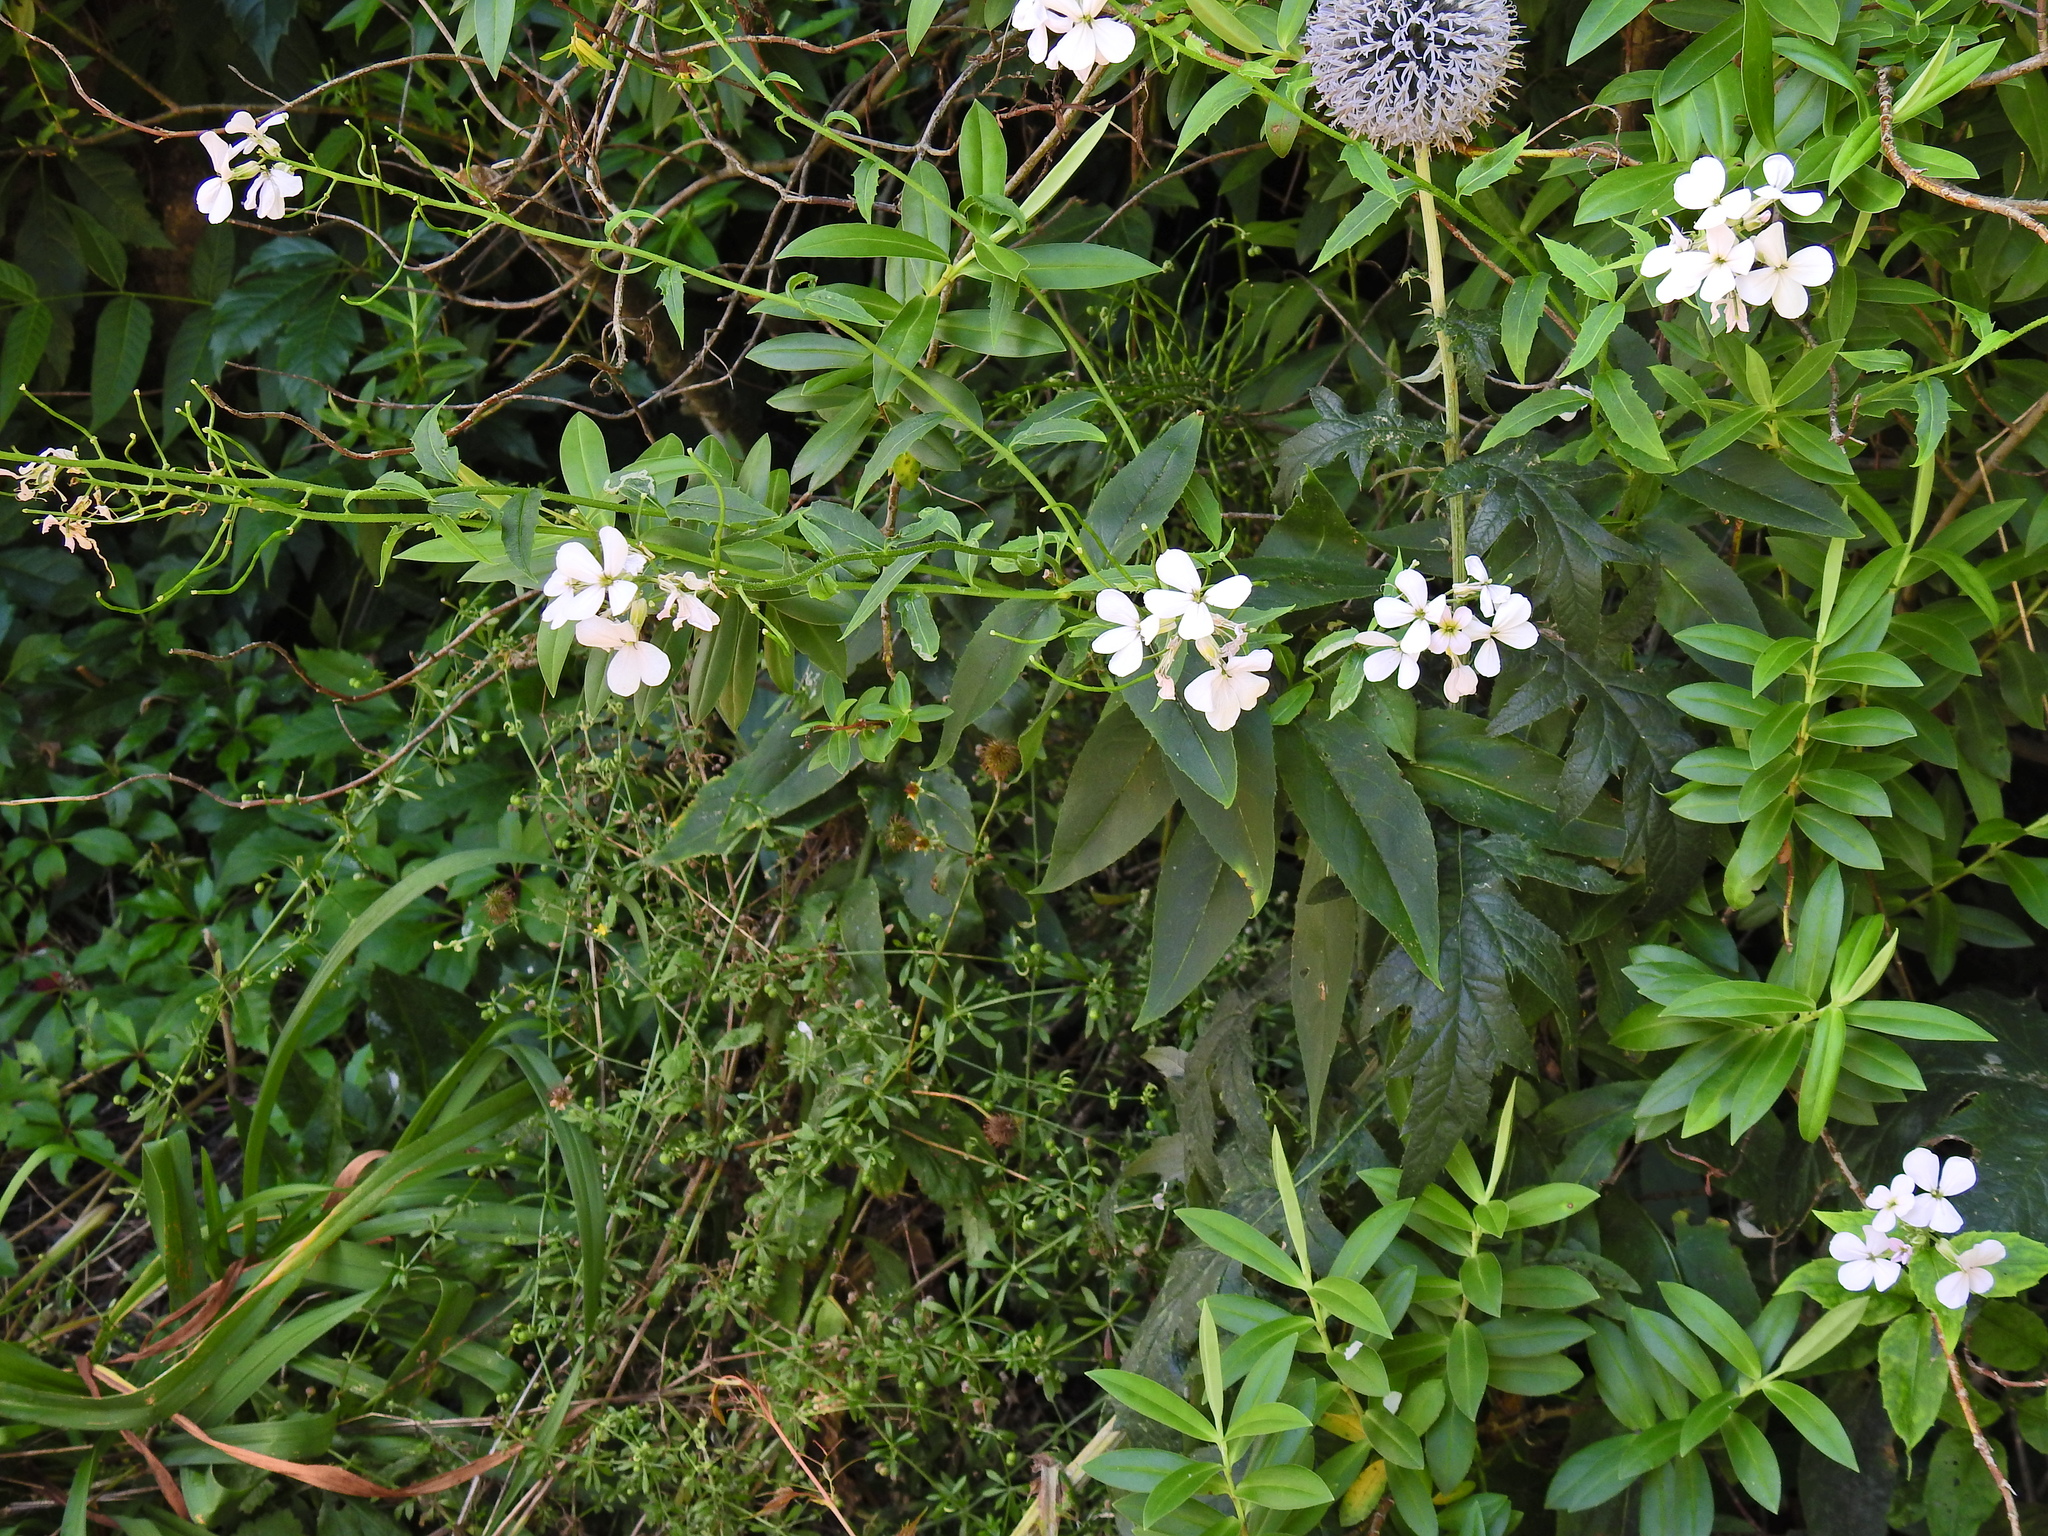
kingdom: Plantae
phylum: Tracheophyta
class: Magnoliopsida
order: Brassicales
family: Brassicaceae
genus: Hesperis
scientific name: Hesperis matronalis
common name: Dame's-violet
